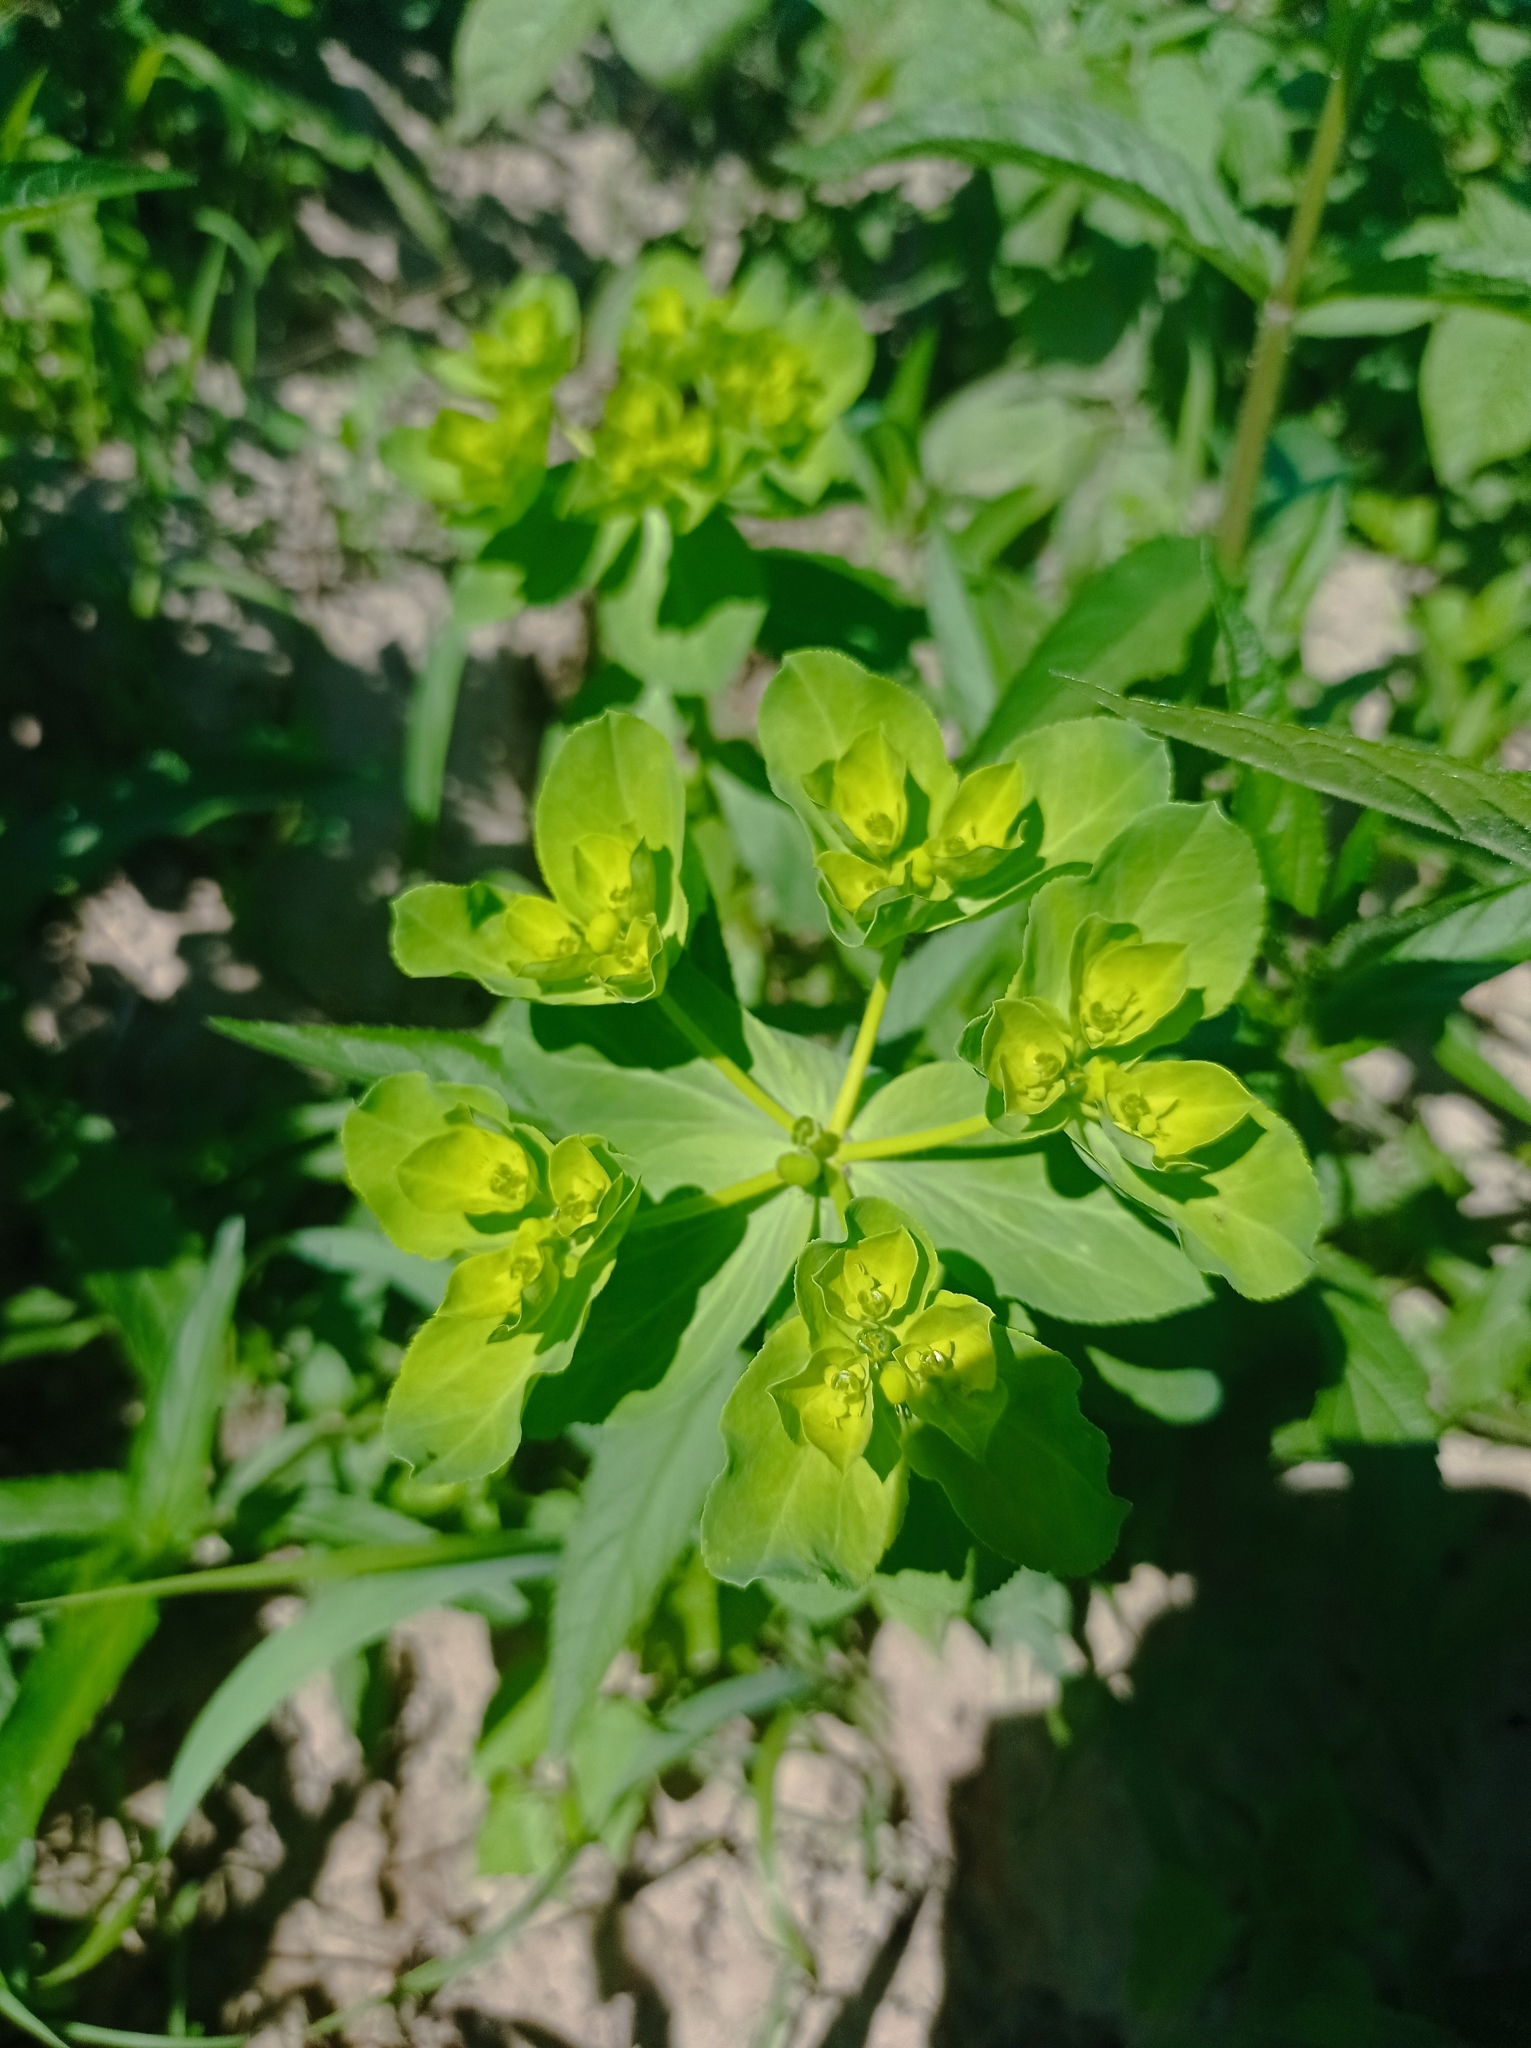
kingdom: Plantae
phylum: Tracheophyta
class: Magnoliopsida
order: Malpighiales
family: Euphorbiaceae
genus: Euphorbia
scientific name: Euphorbia helioscopia
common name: Sun spurge
